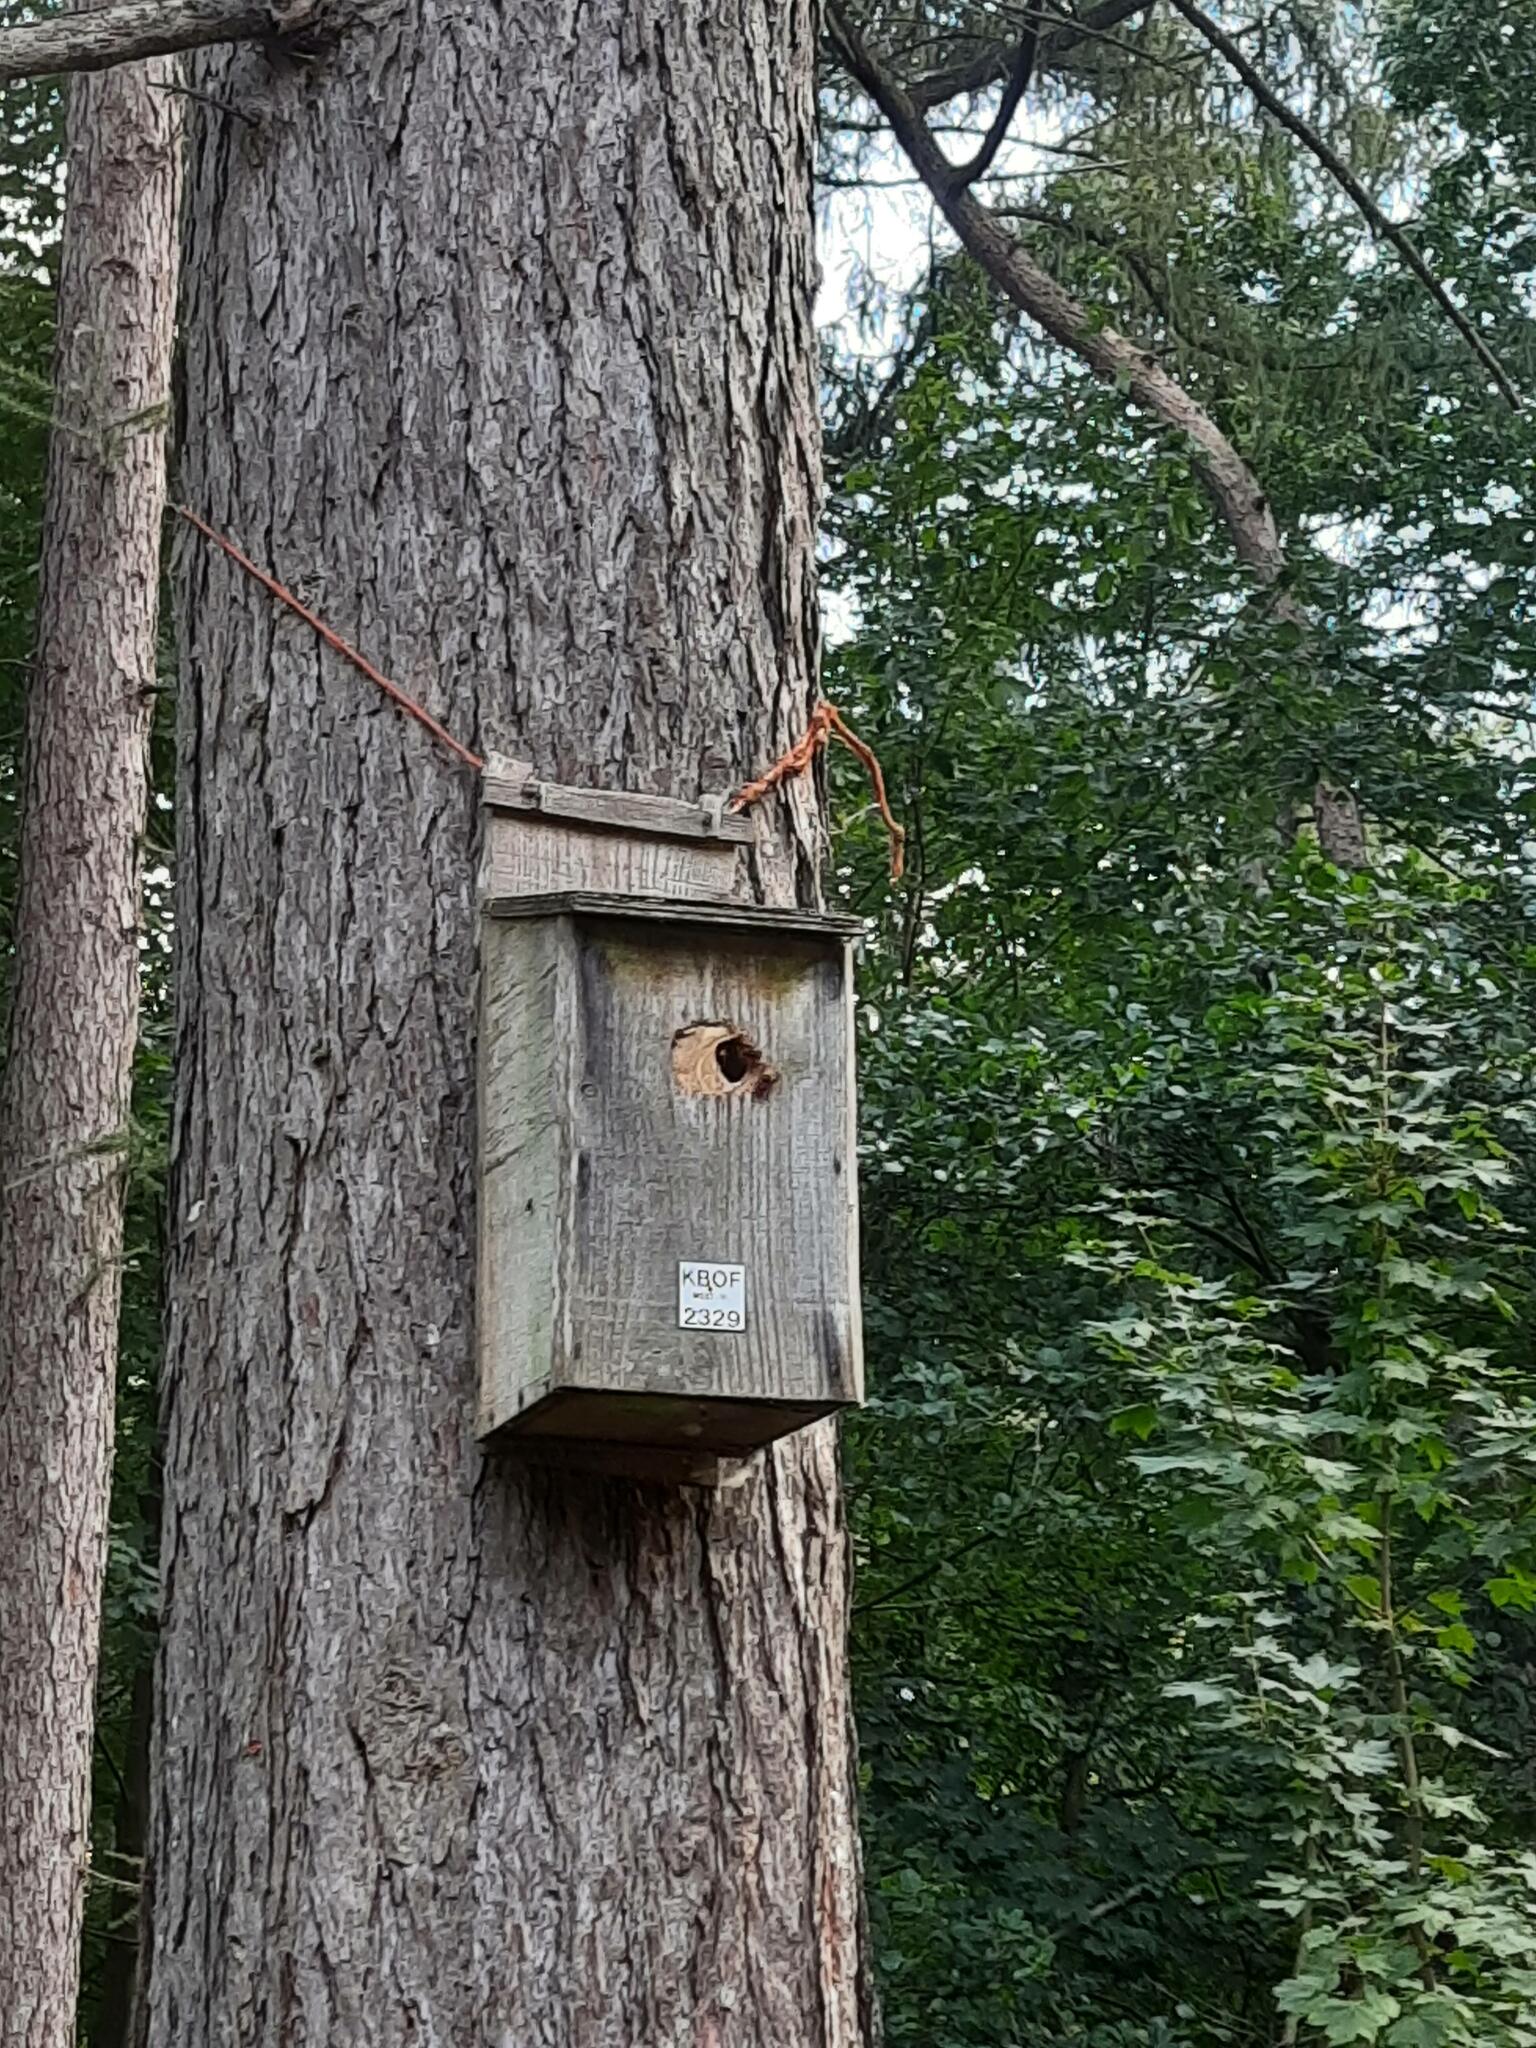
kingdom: Animalia
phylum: Arthropoda
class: Insecta
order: Hymenoptera
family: Vespidae
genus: Vespa
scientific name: Vespa crabro
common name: Hornet
